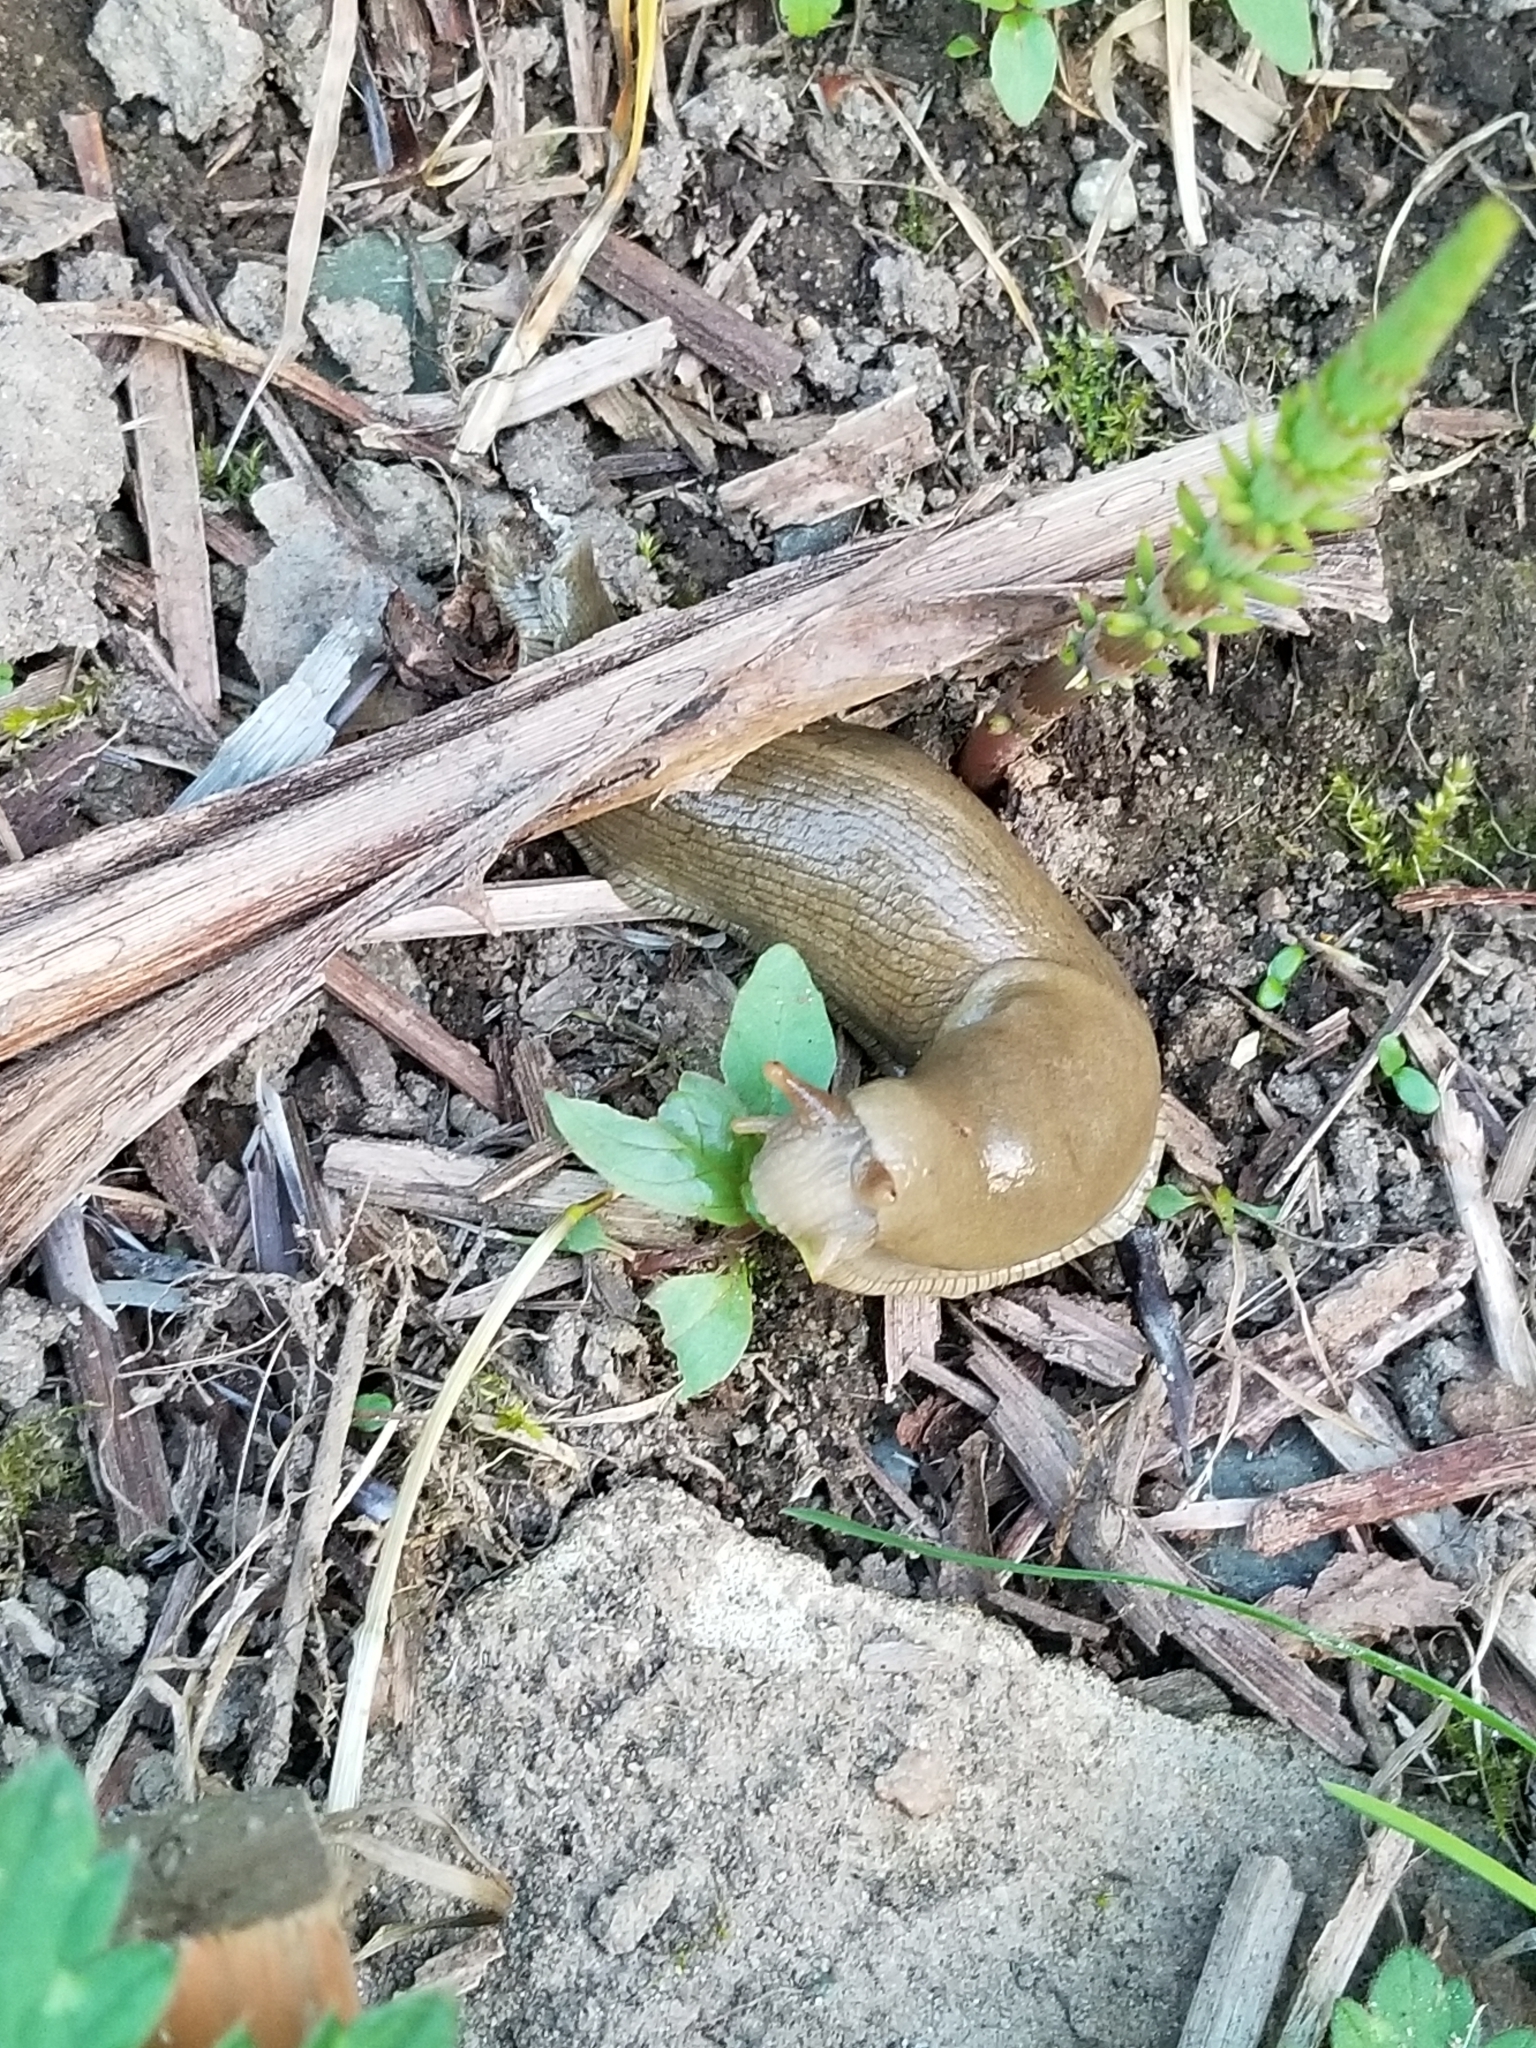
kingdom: Animalia
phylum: Mollusca
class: Gastropoda
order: Stylommatophora
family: Ariolimacidae
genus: Ariolimax
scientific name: Ariolimax columbianus
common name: Pacific banana slug
